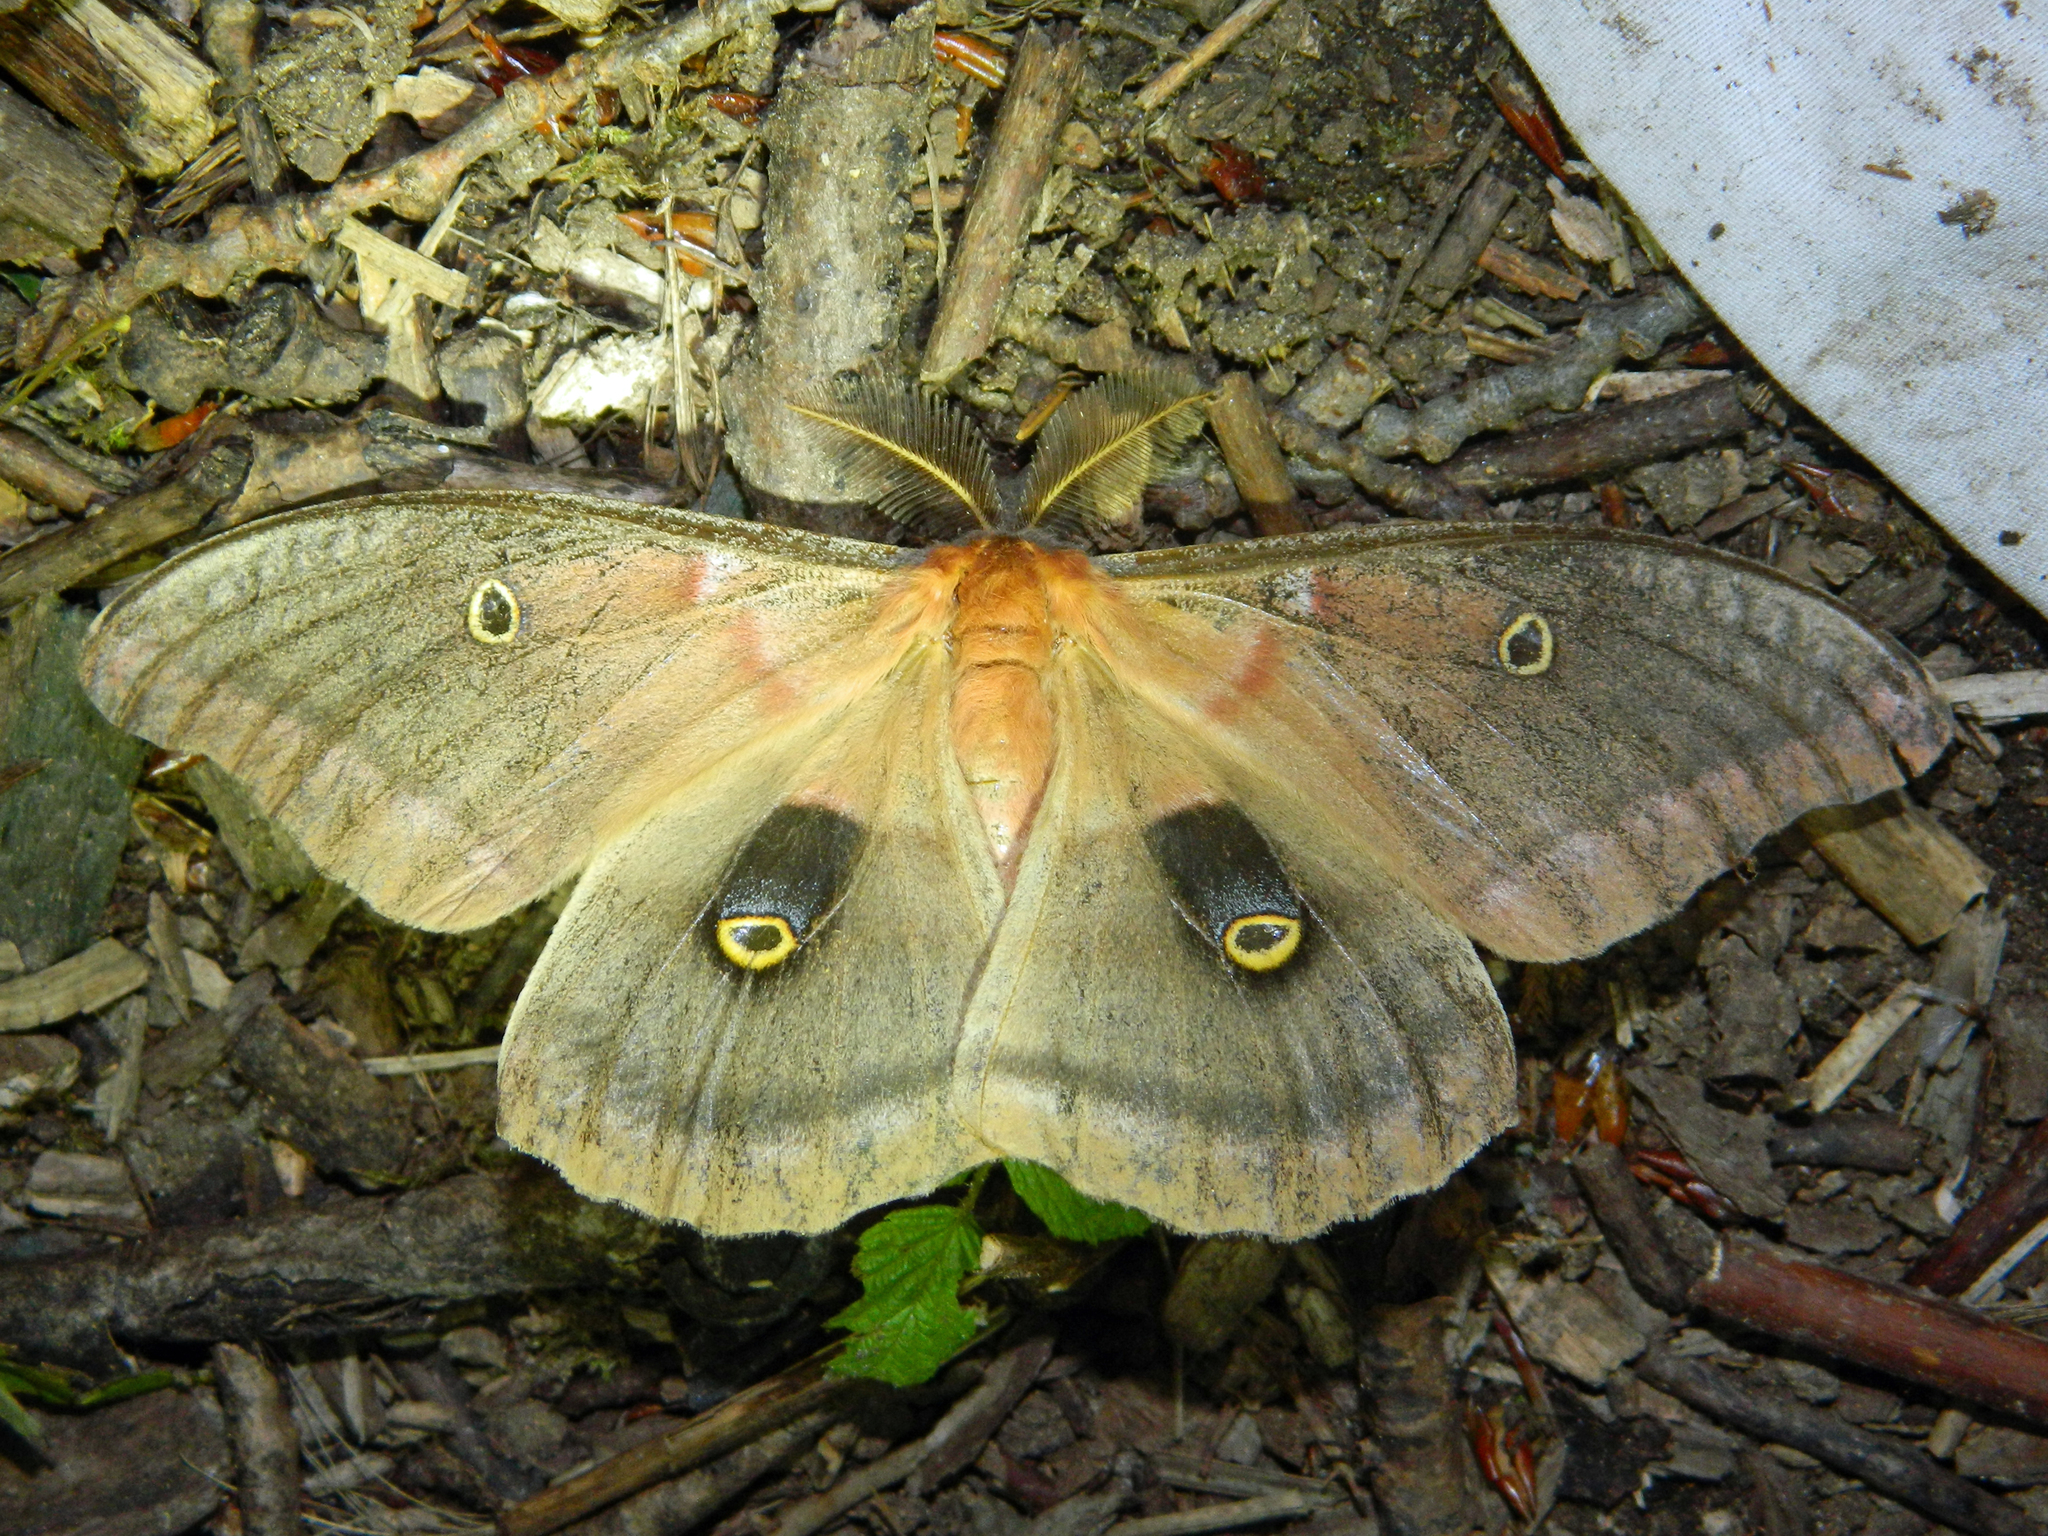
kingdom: Animalia
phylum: Arthropoda
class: Insecta
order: Lepidoptera
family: Saturniidae
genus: Antheraea
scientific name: Antheraea polyphemus
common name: Polyphemus moth
